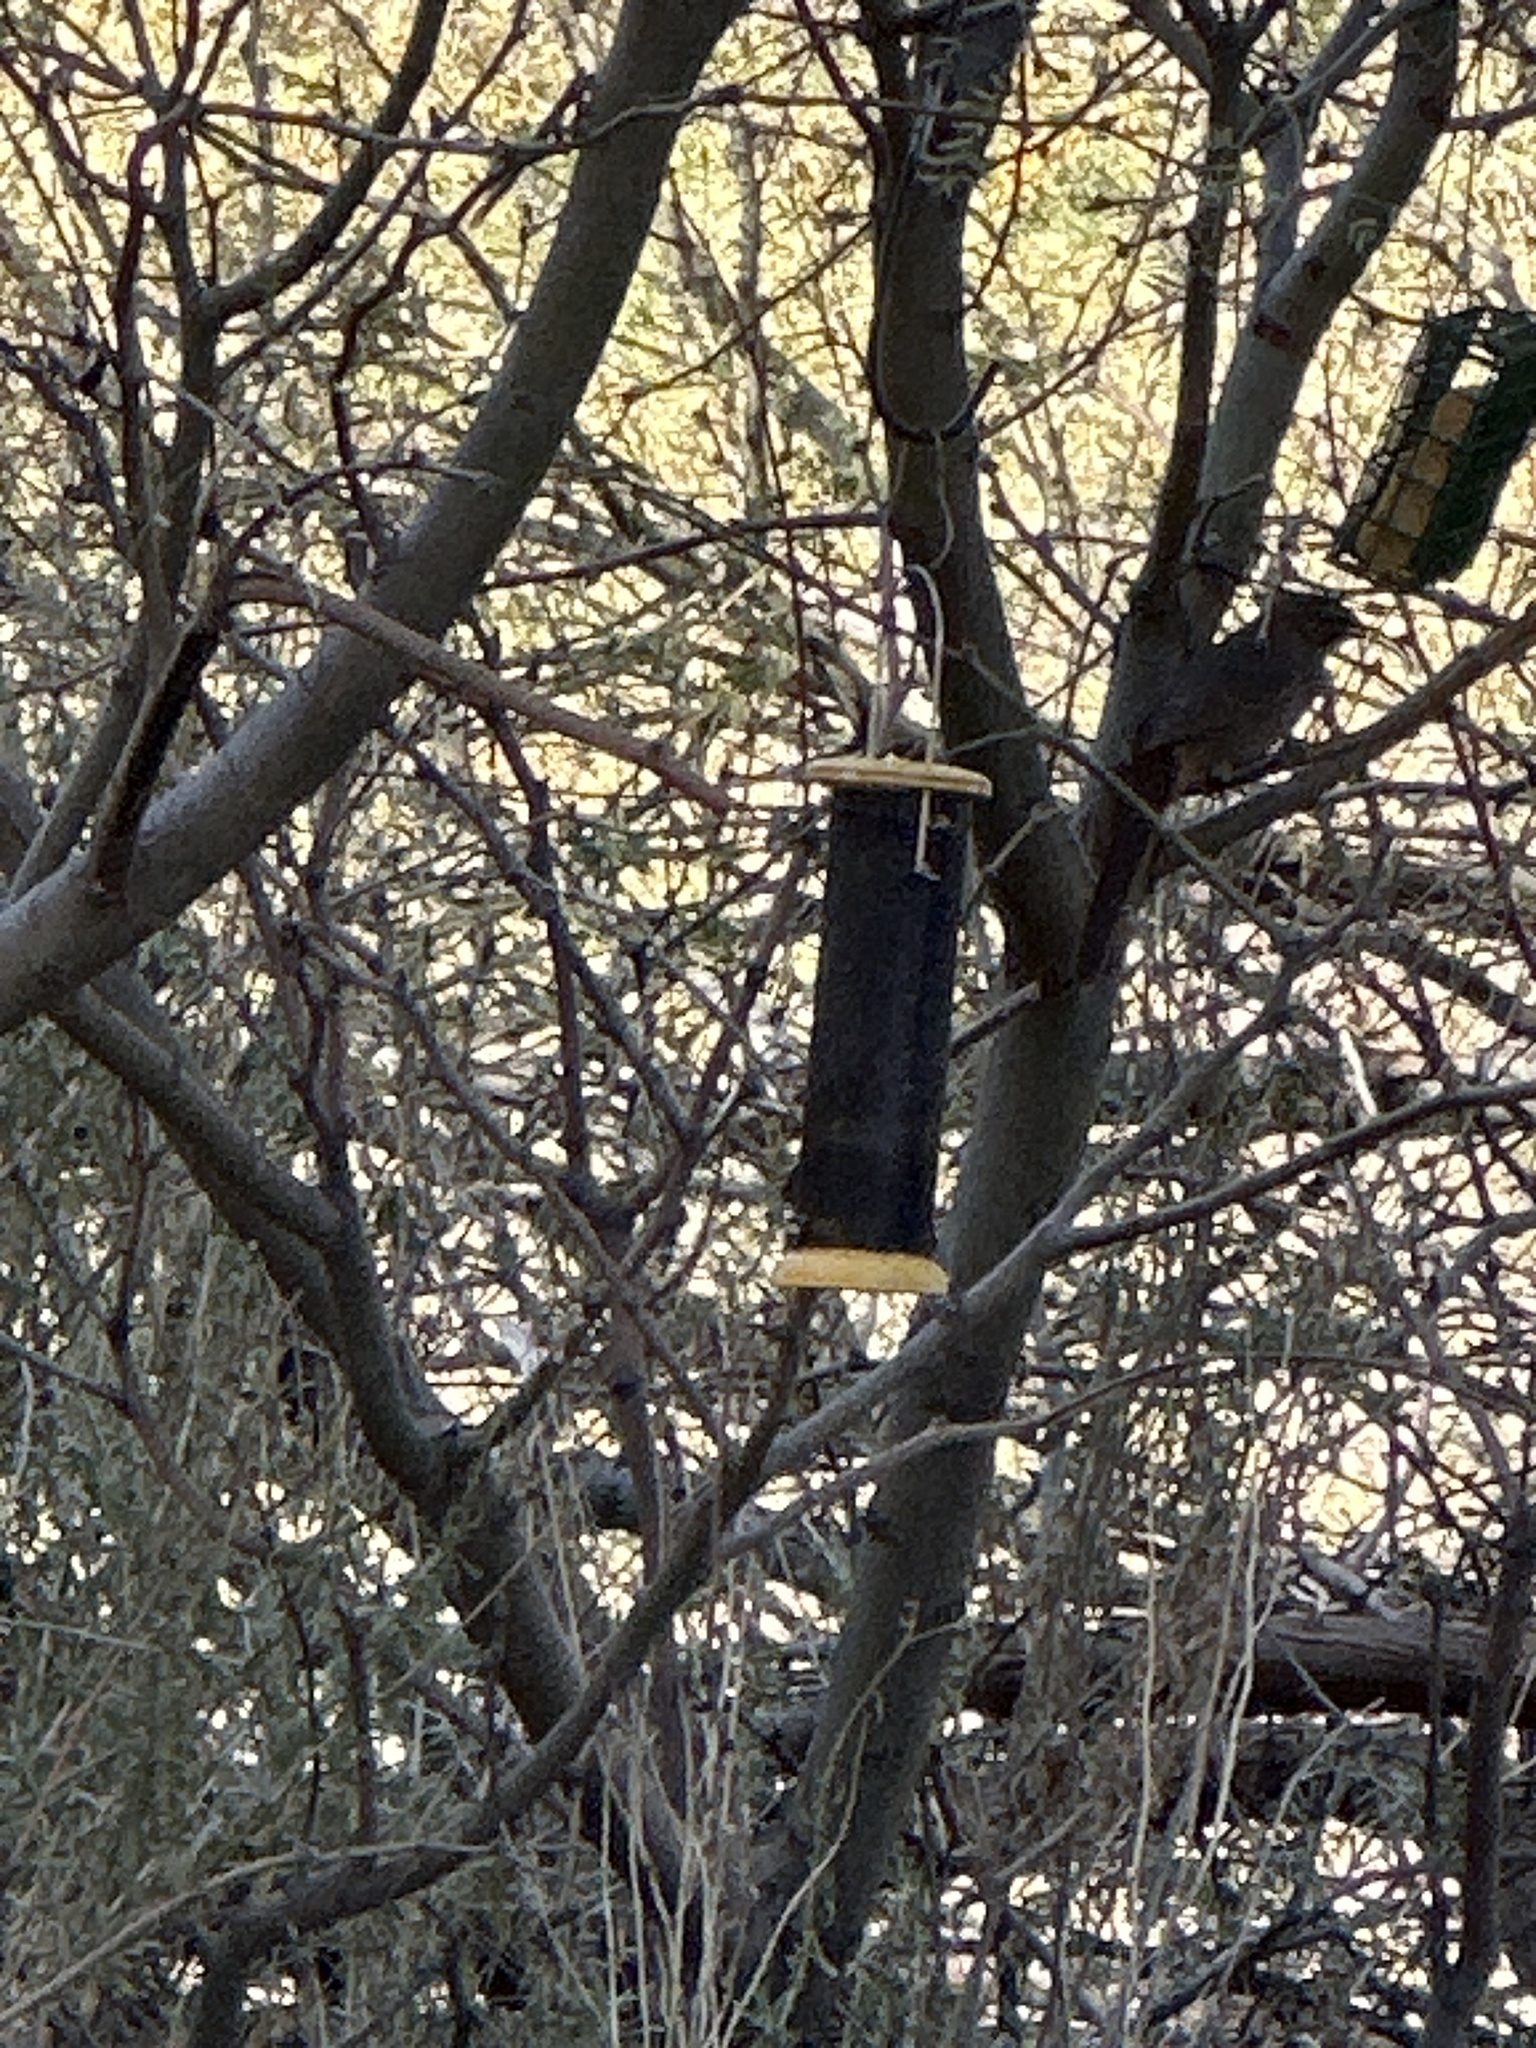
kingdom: Animalia
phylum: Chordata
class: Aves
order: Passeriformes
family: Mimidae
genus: Toxostoma
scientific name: Toxostoma redivivum
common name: California thrasher
